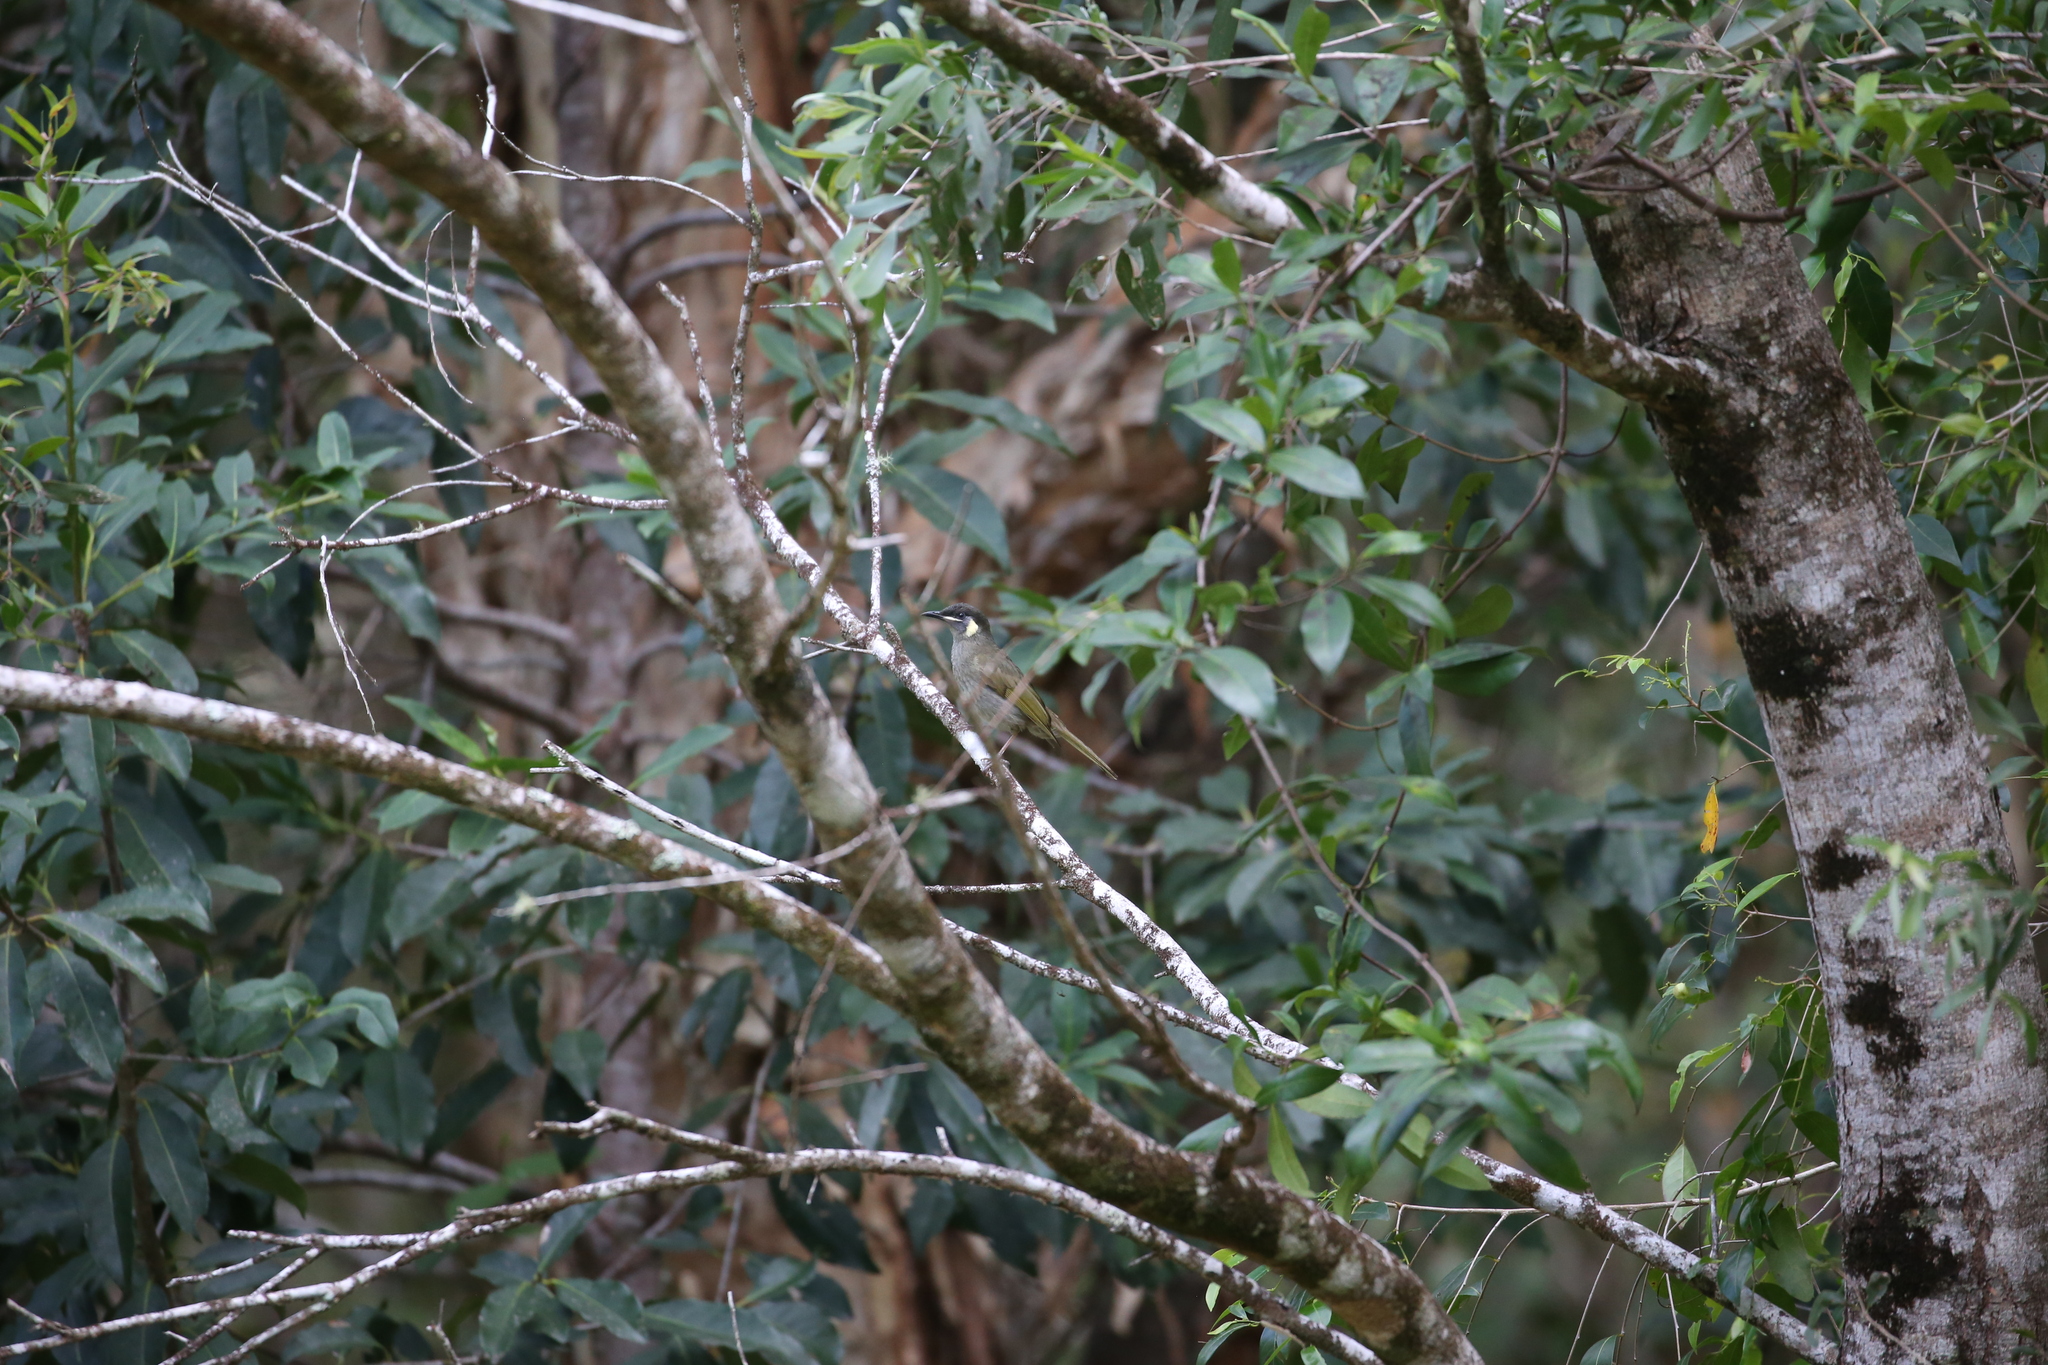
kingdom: Animalia
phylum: Chordata
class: Aves
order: Passeriformes
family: Meliphagidae
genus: Meliphaga
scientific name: Meliphaga lewinii
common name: Lewin's honeyeater
